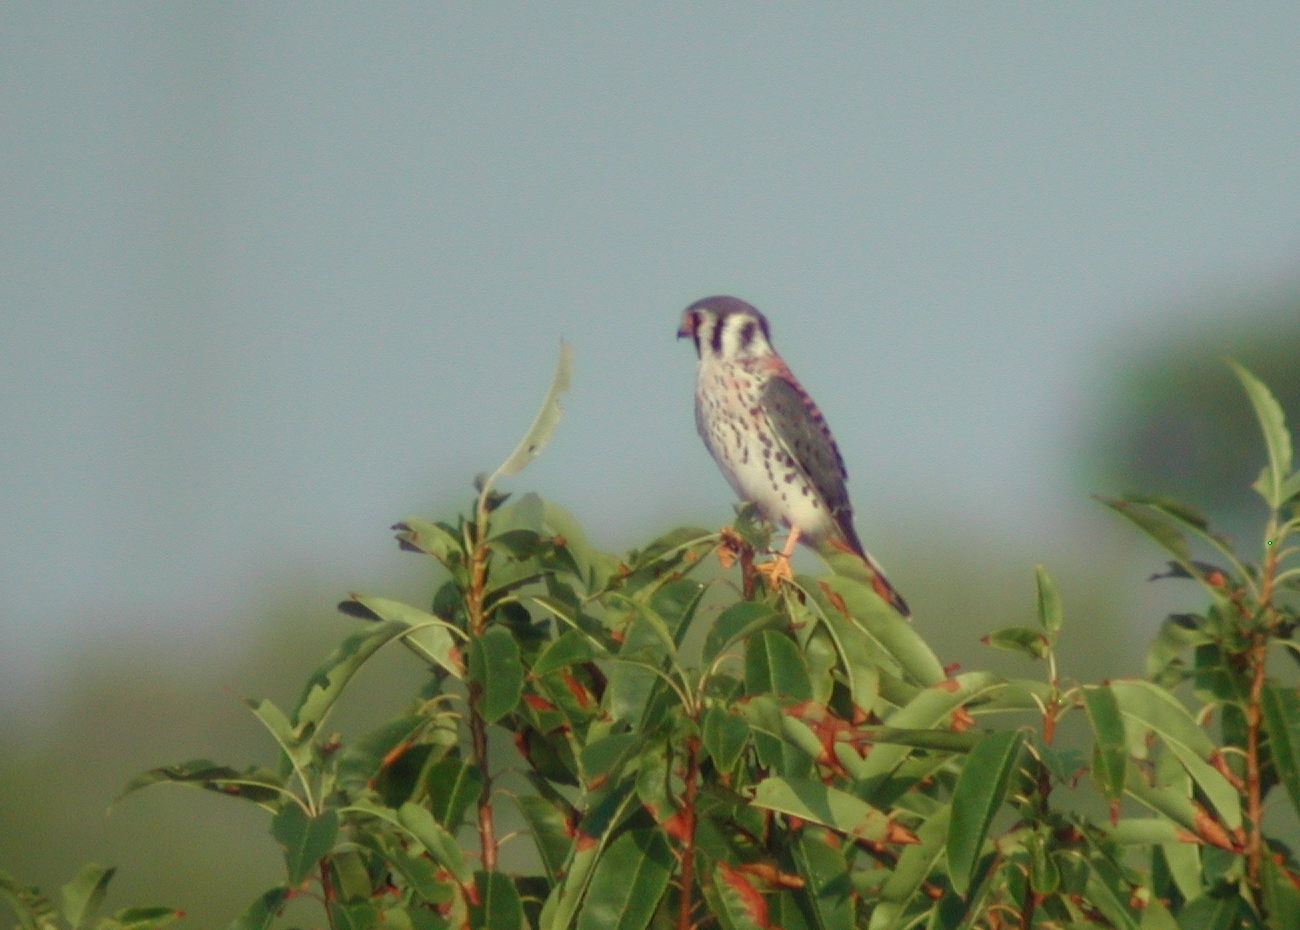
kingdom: Animalia
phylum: Chordata
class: Aves
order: Falconiformes
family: Falconidae
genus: Falco
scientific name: Falco sparverius
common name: American kestrel
